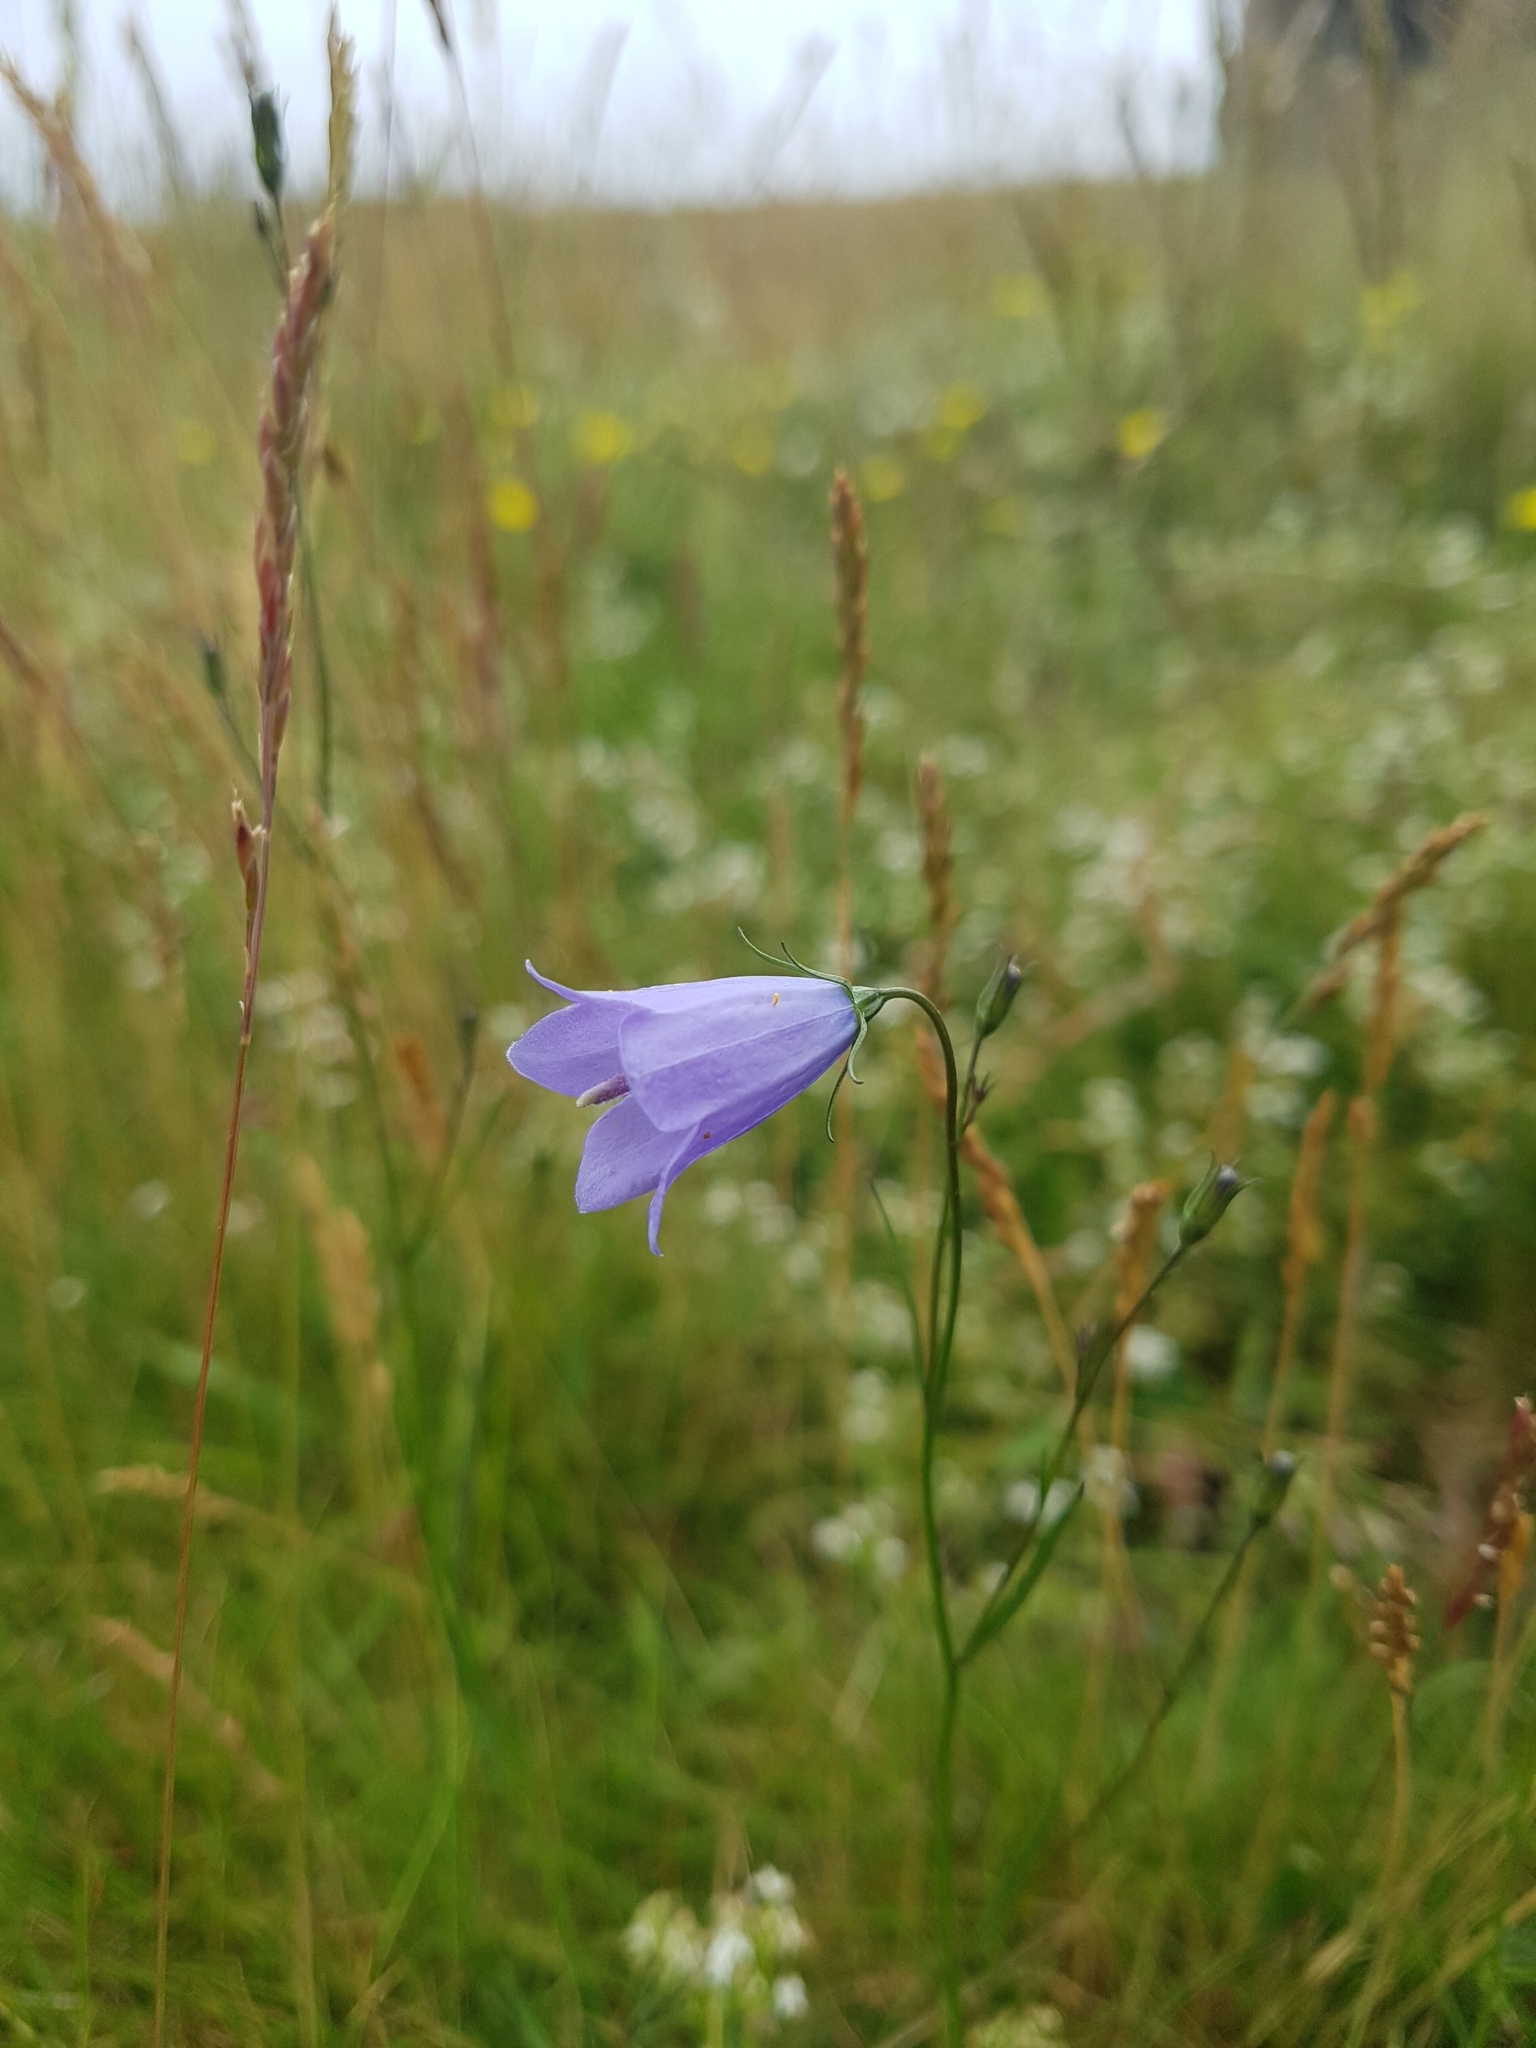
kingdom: Plantae
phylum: Tracheophyta
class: Magnoliopsida
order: Asterales
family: Campanulaceae
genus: Campanula
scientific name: Campanula rotundifolia
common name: Harebell
